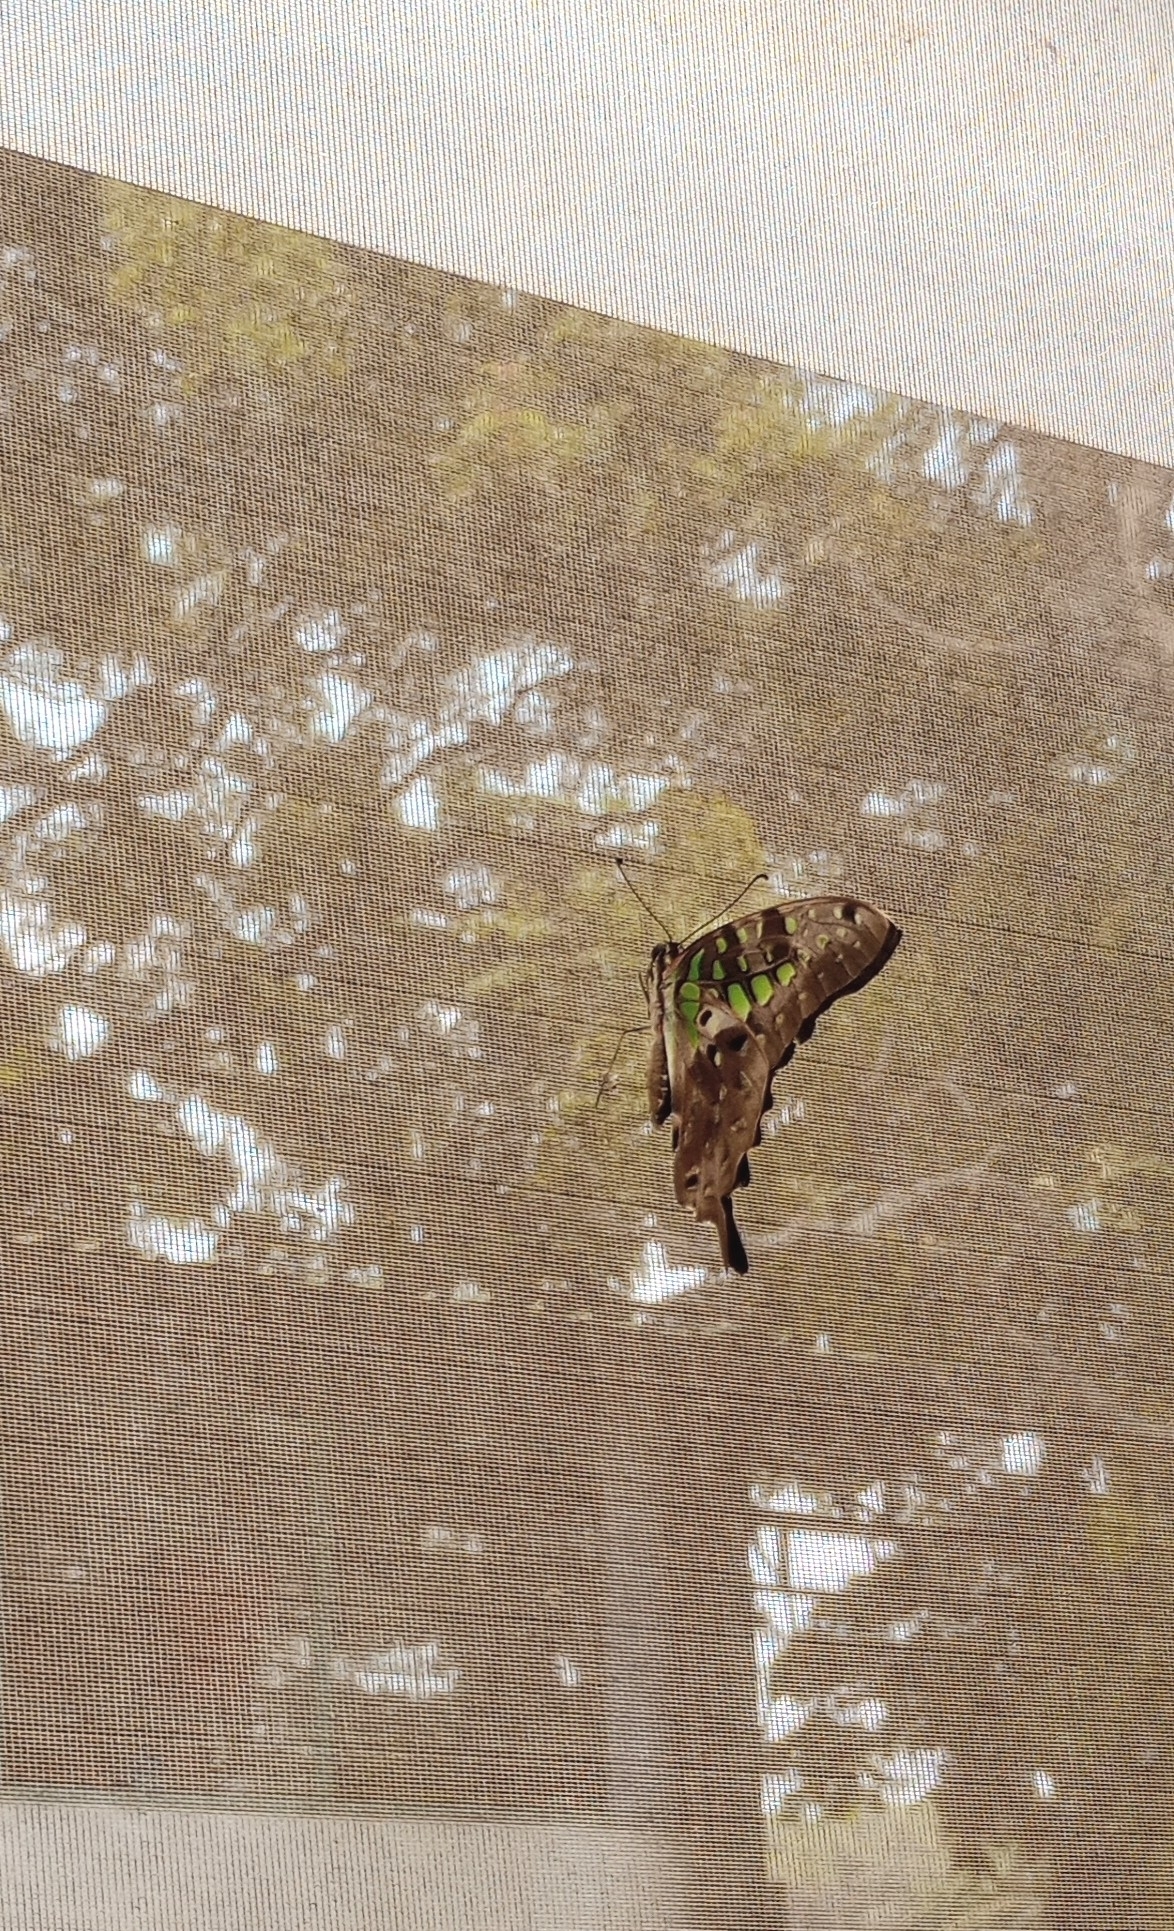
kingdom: Animalia
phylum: Arthropoda
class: Insecta
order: Lepidoptera
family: Papilionidae
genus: Graphium
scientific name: Graphium agamemnon
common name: Tailed jay
